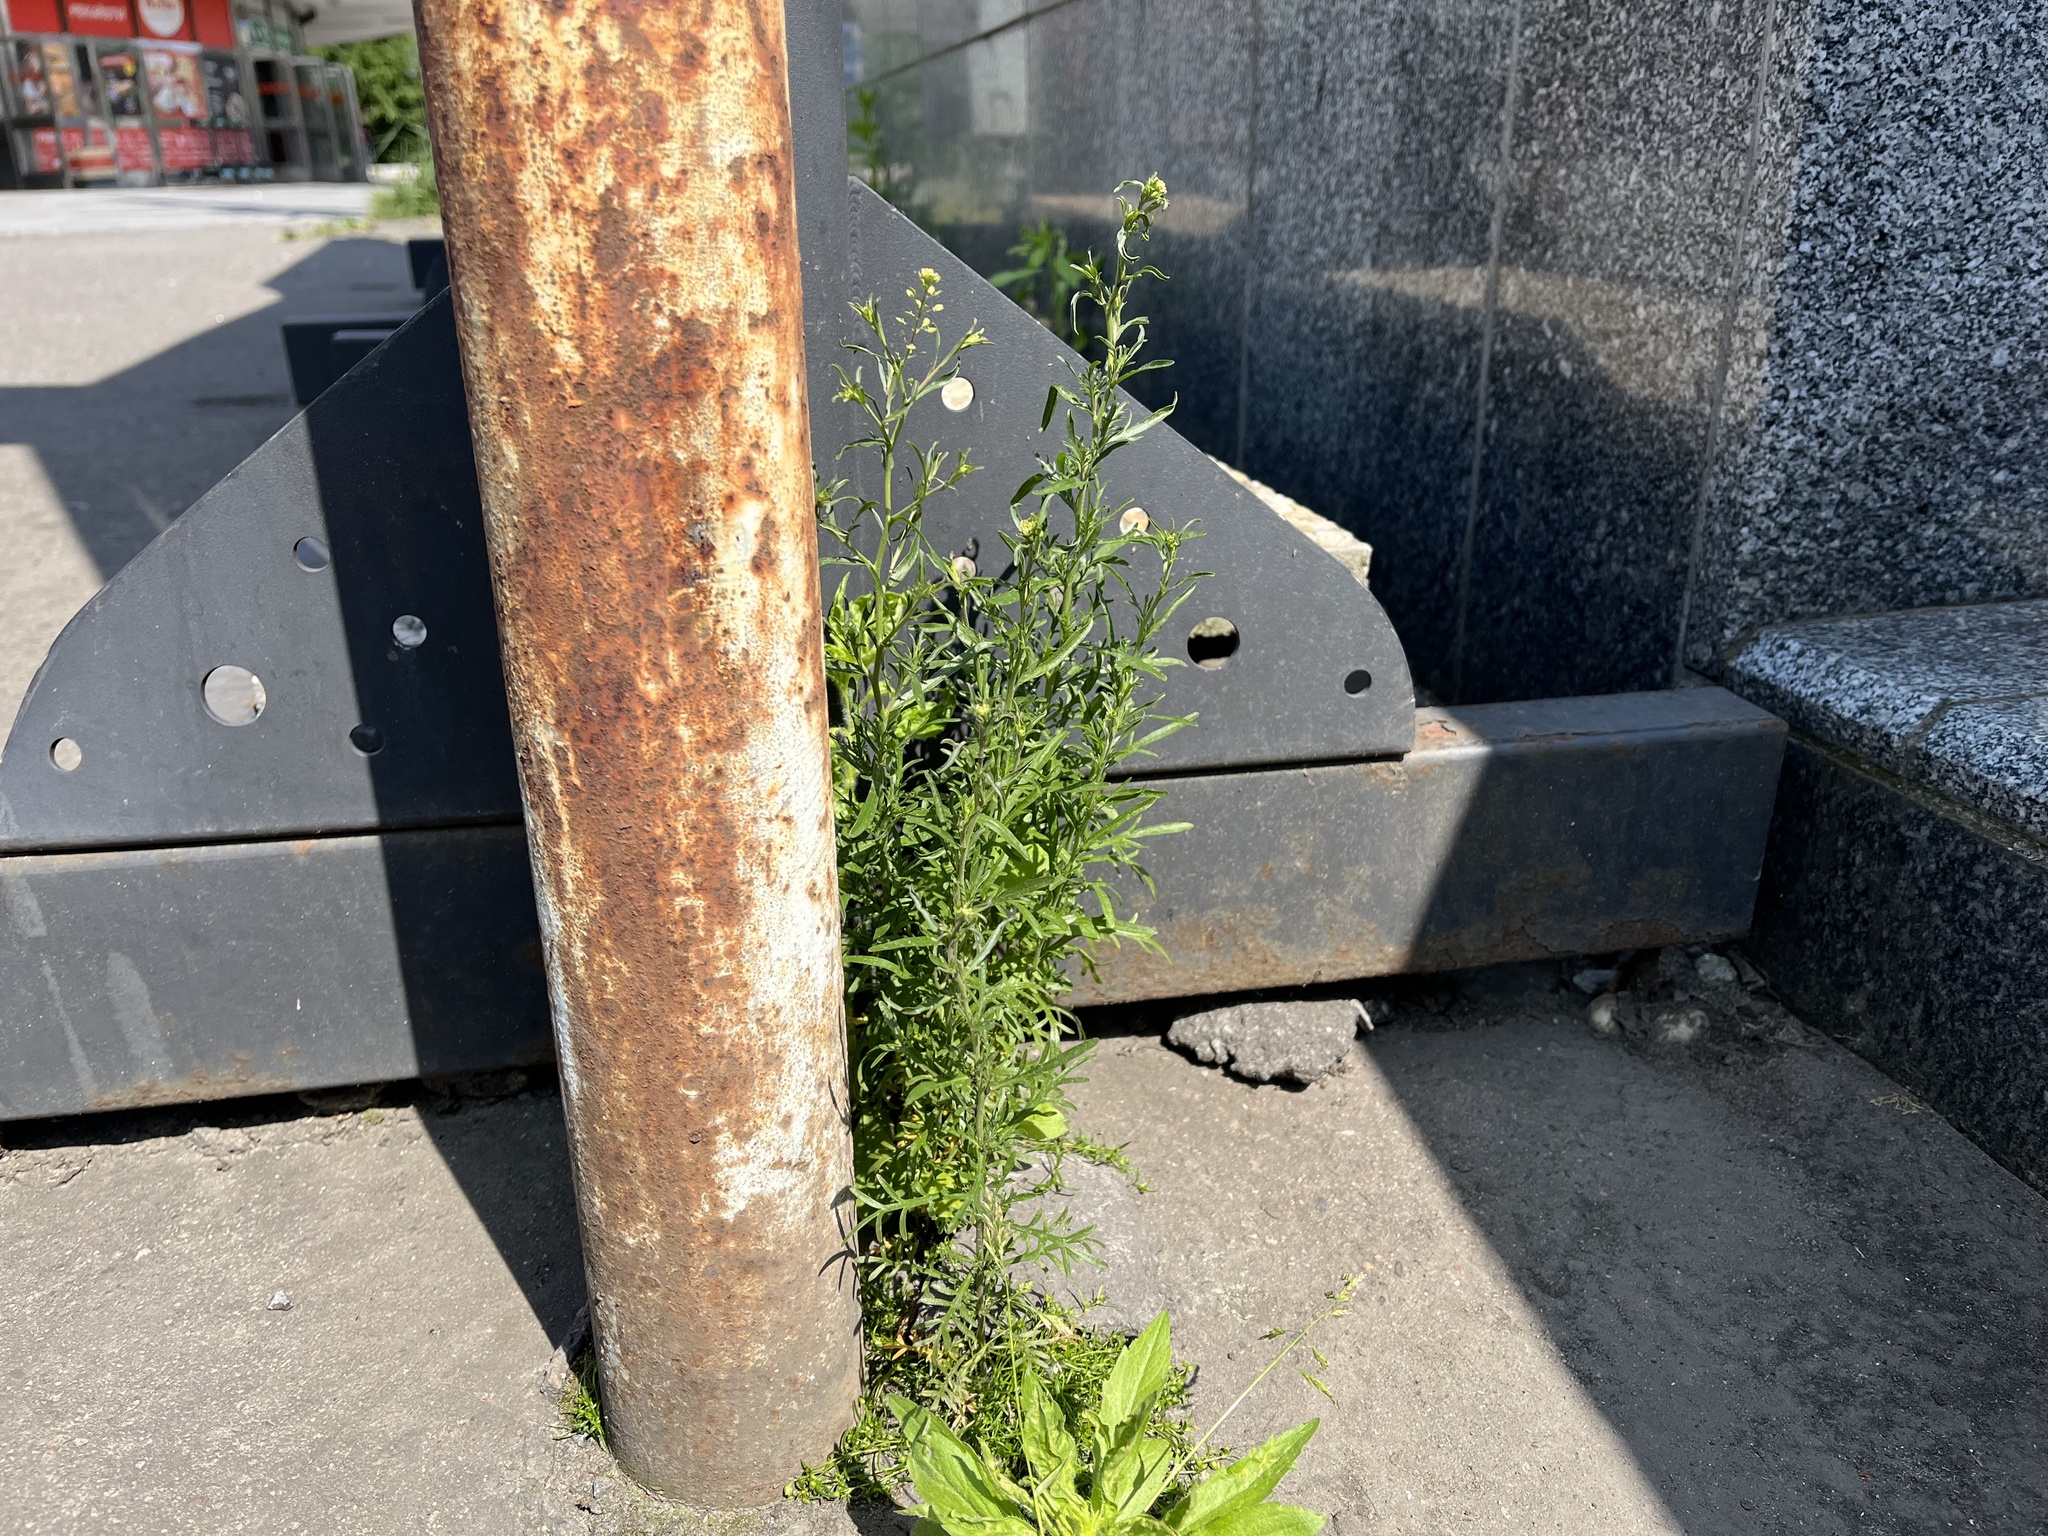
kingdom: Plantae
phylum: Tracheophyta
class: Magnoliopsida
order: Brassicales
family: Brassicaceae
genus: Lepidium
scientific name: Lepidium ruderale
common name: Narrow-leaved pepperwort
